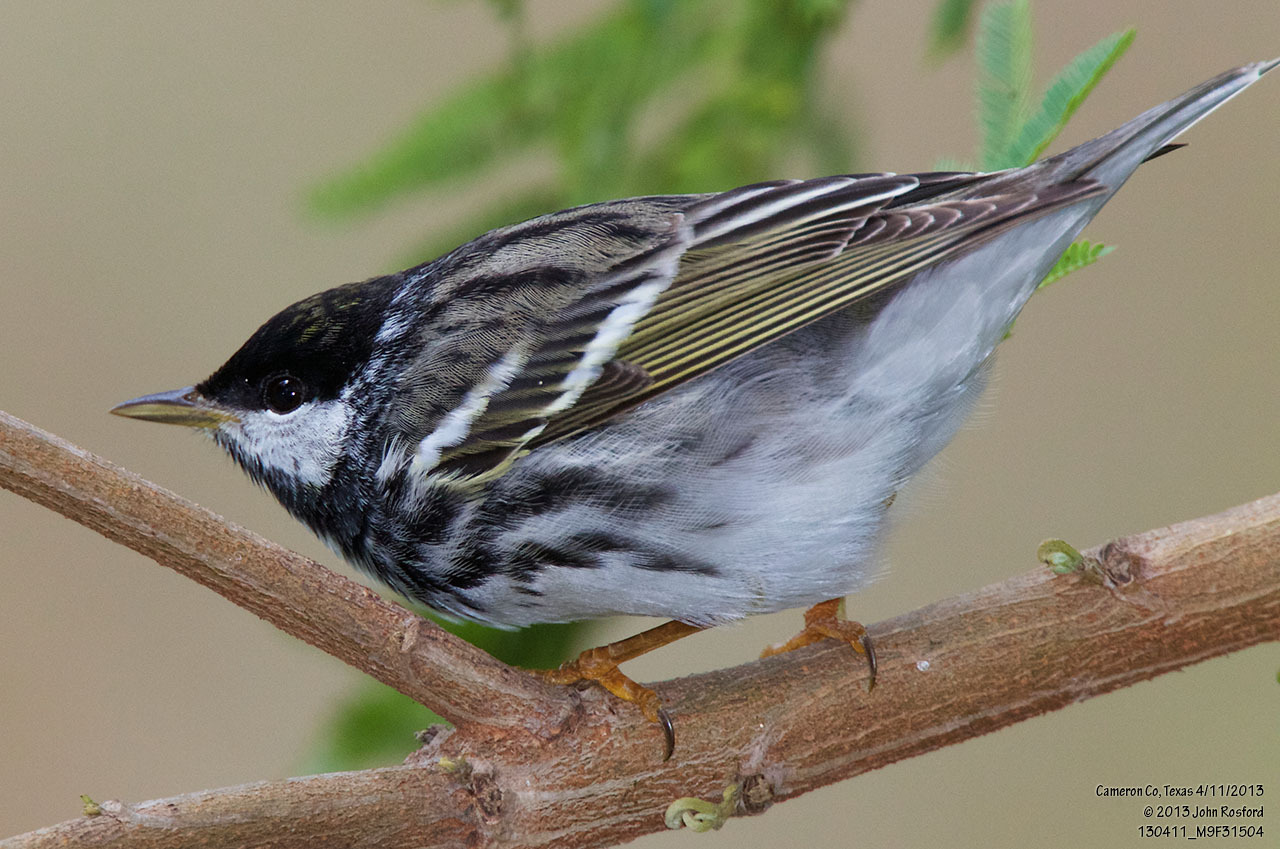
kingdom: Animalia
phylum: Chordata
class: Aves
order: Passeriformes
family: Parulidae
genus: Setophaga
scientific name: Setophaga striata
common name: Blackpoll warbler
